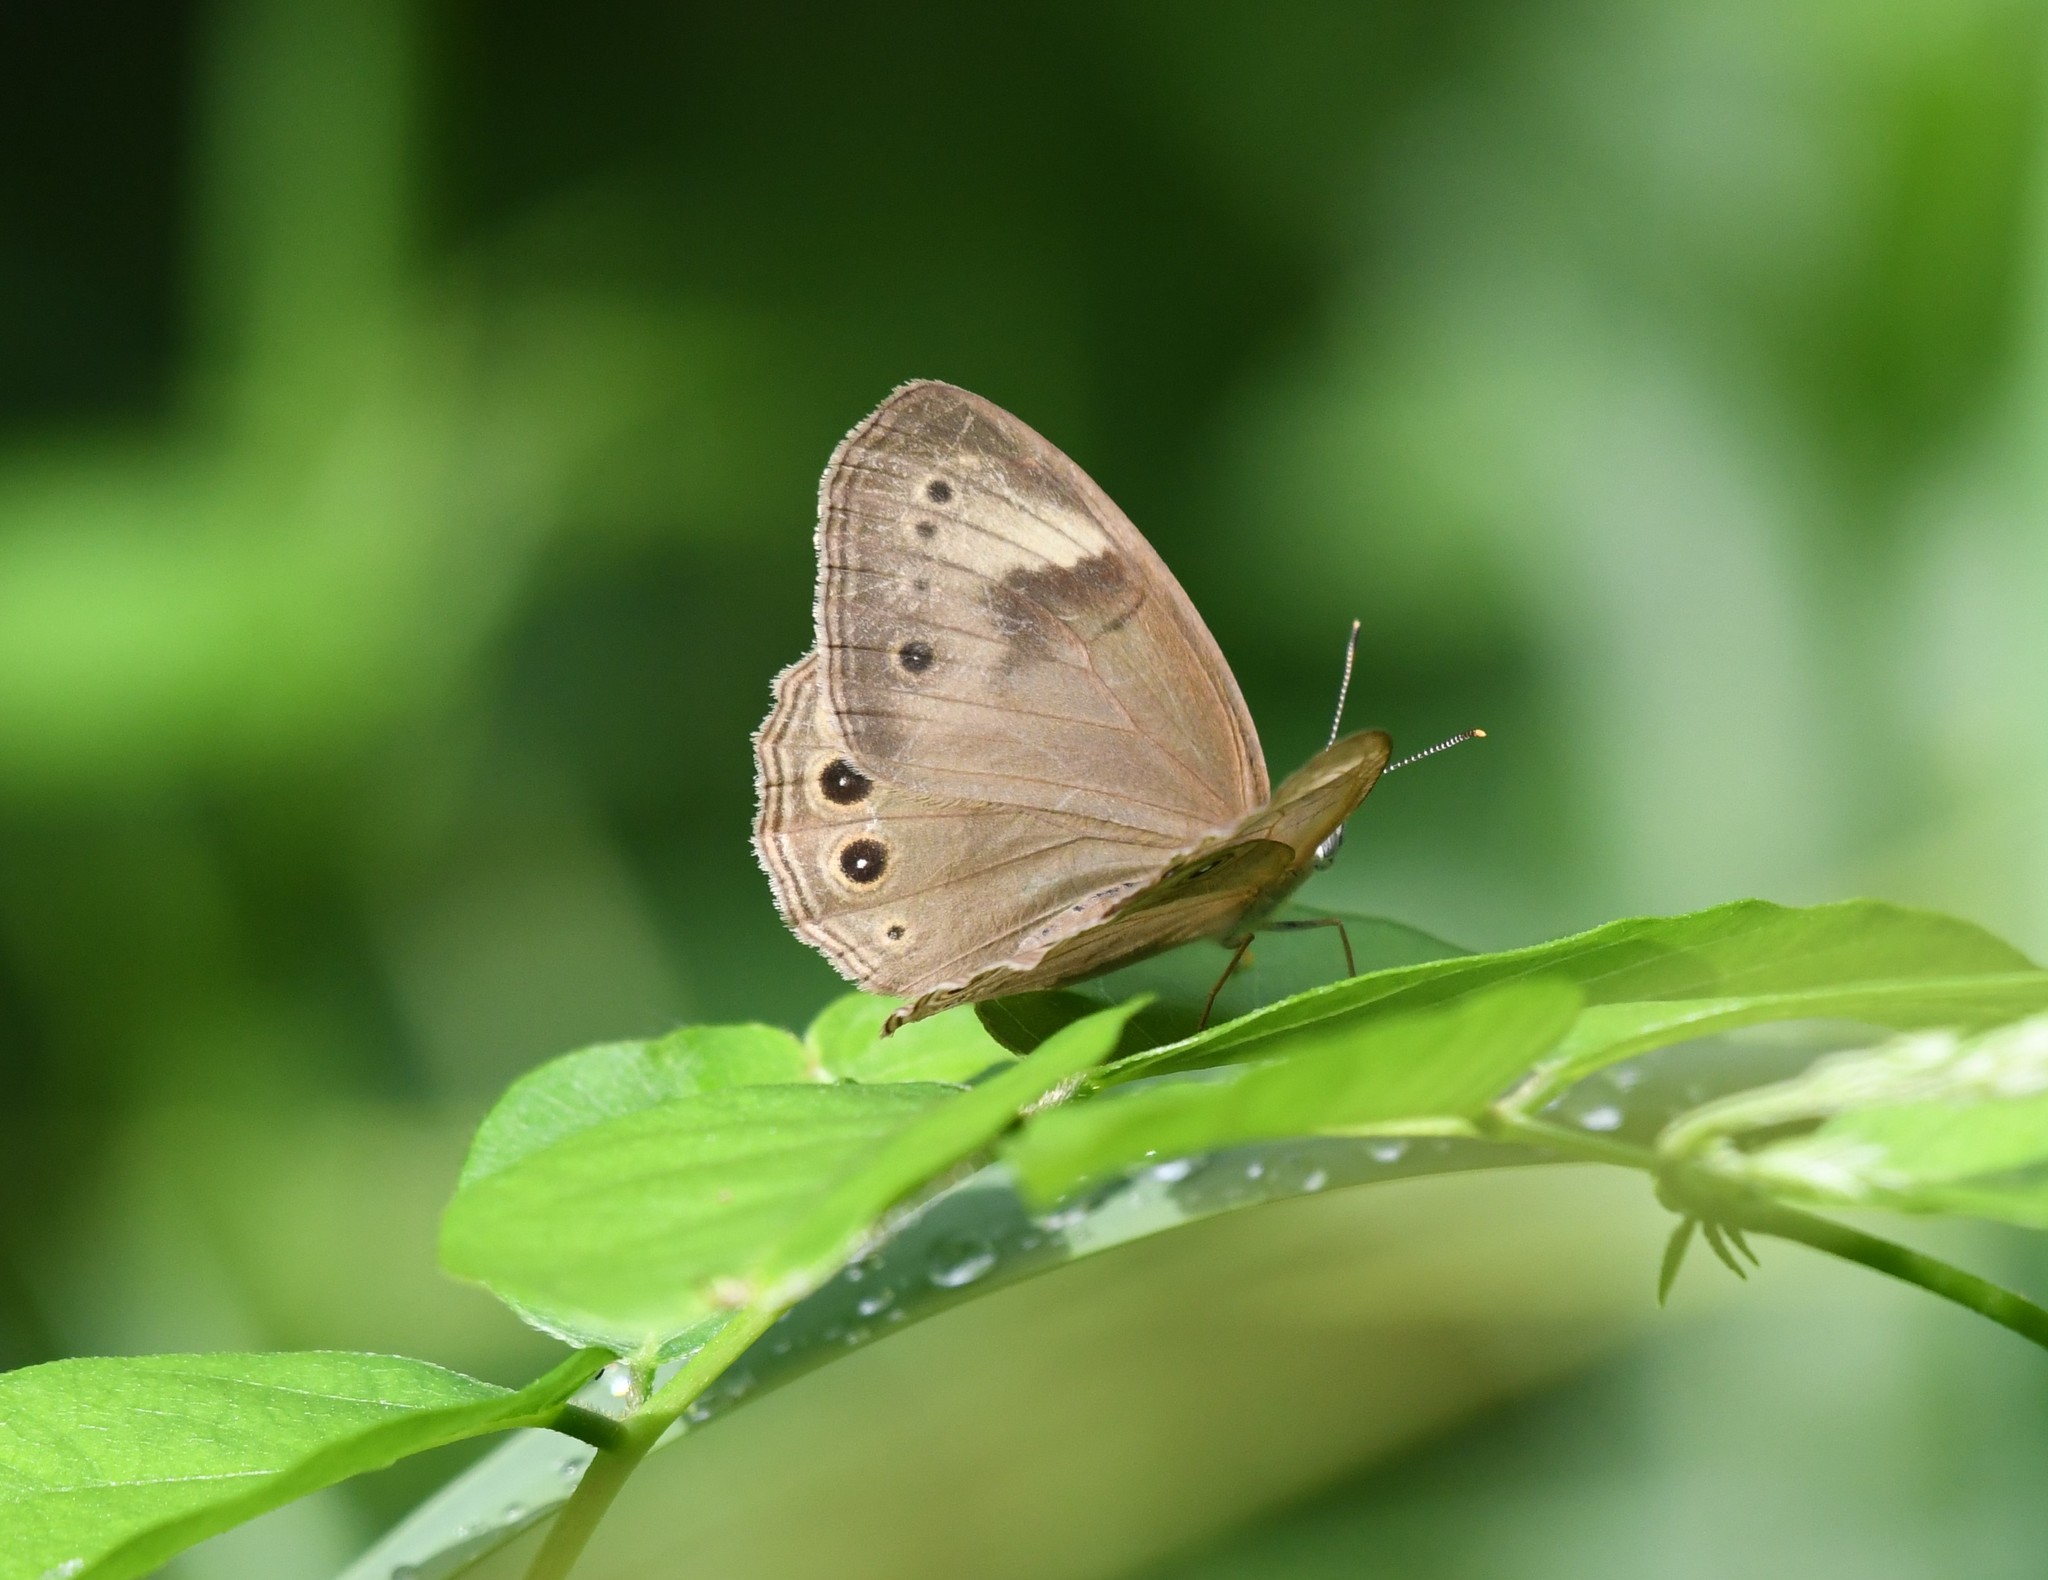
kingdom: Animalia
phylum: Arthropoda
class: Insecta
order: Lepidoptera
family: Nymphalidae
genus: Lethe
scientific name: Lethe eurydice
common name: Eyed brown
